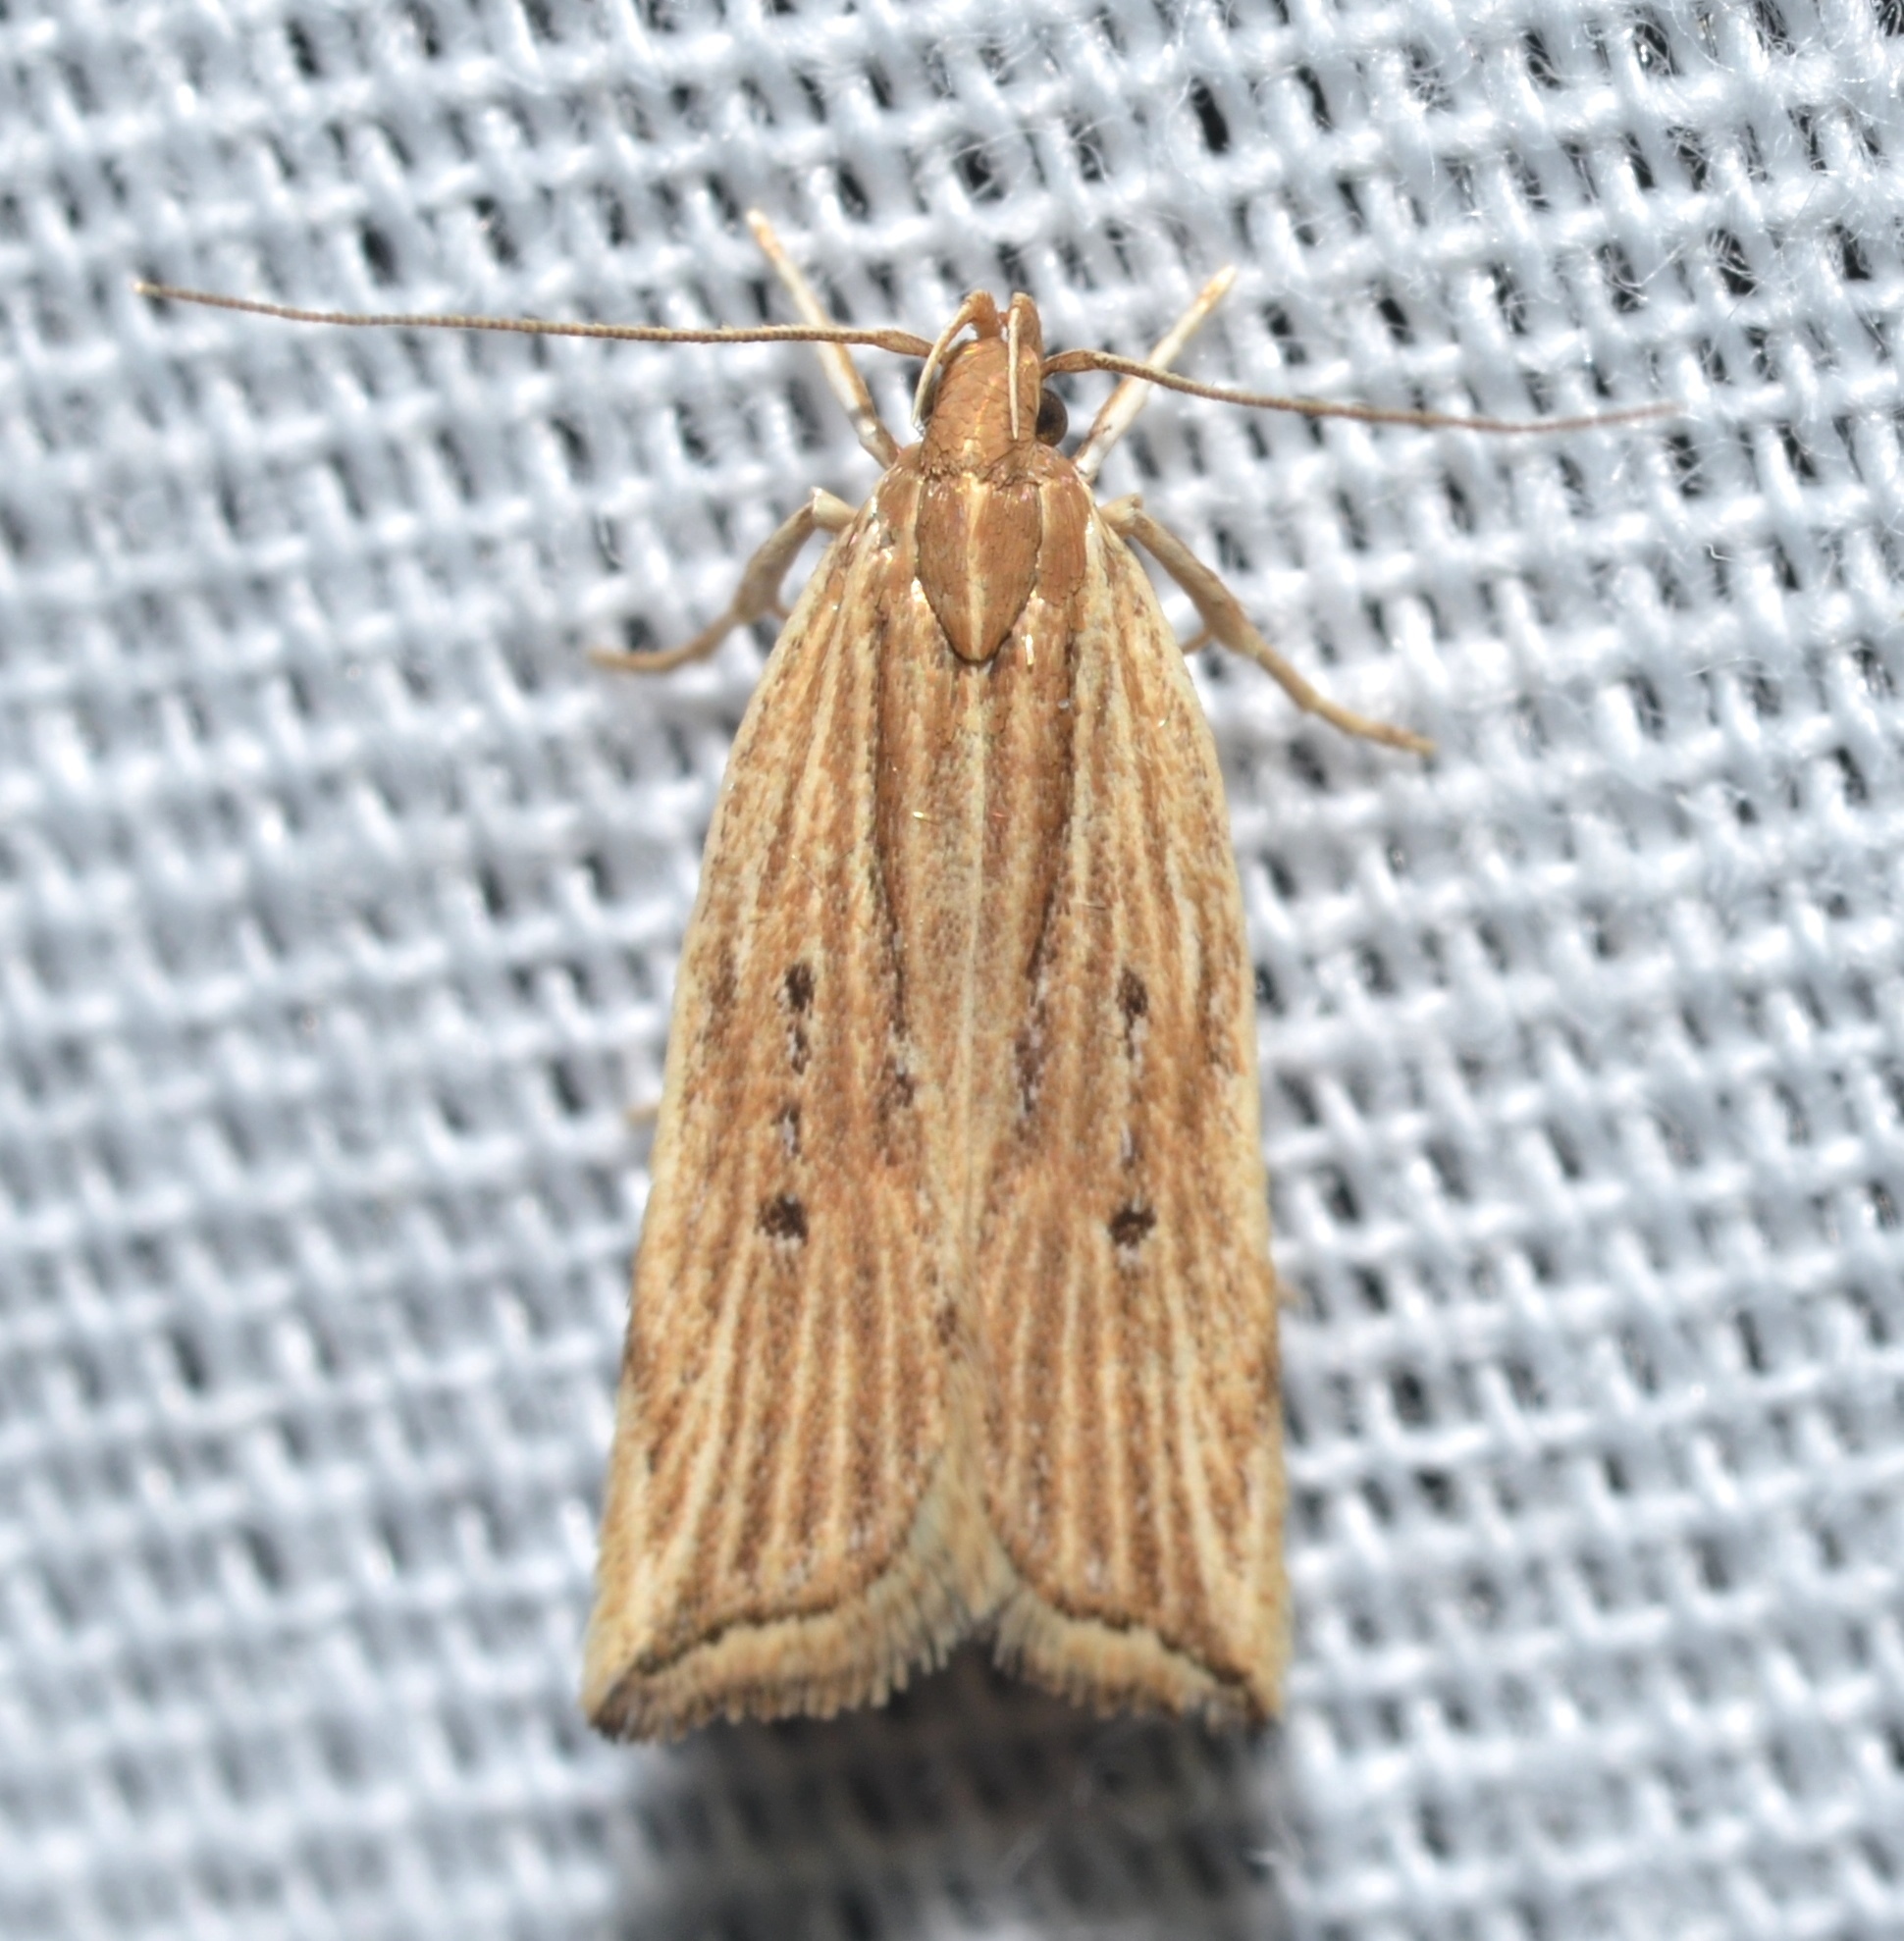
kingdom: Animalia
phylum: Arthropoda
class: Insecta
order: Lepidoptera
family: Gelechiidae
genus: Helcystogramma
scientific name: Helcystogramma hystricella
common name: Lanceolate moth
